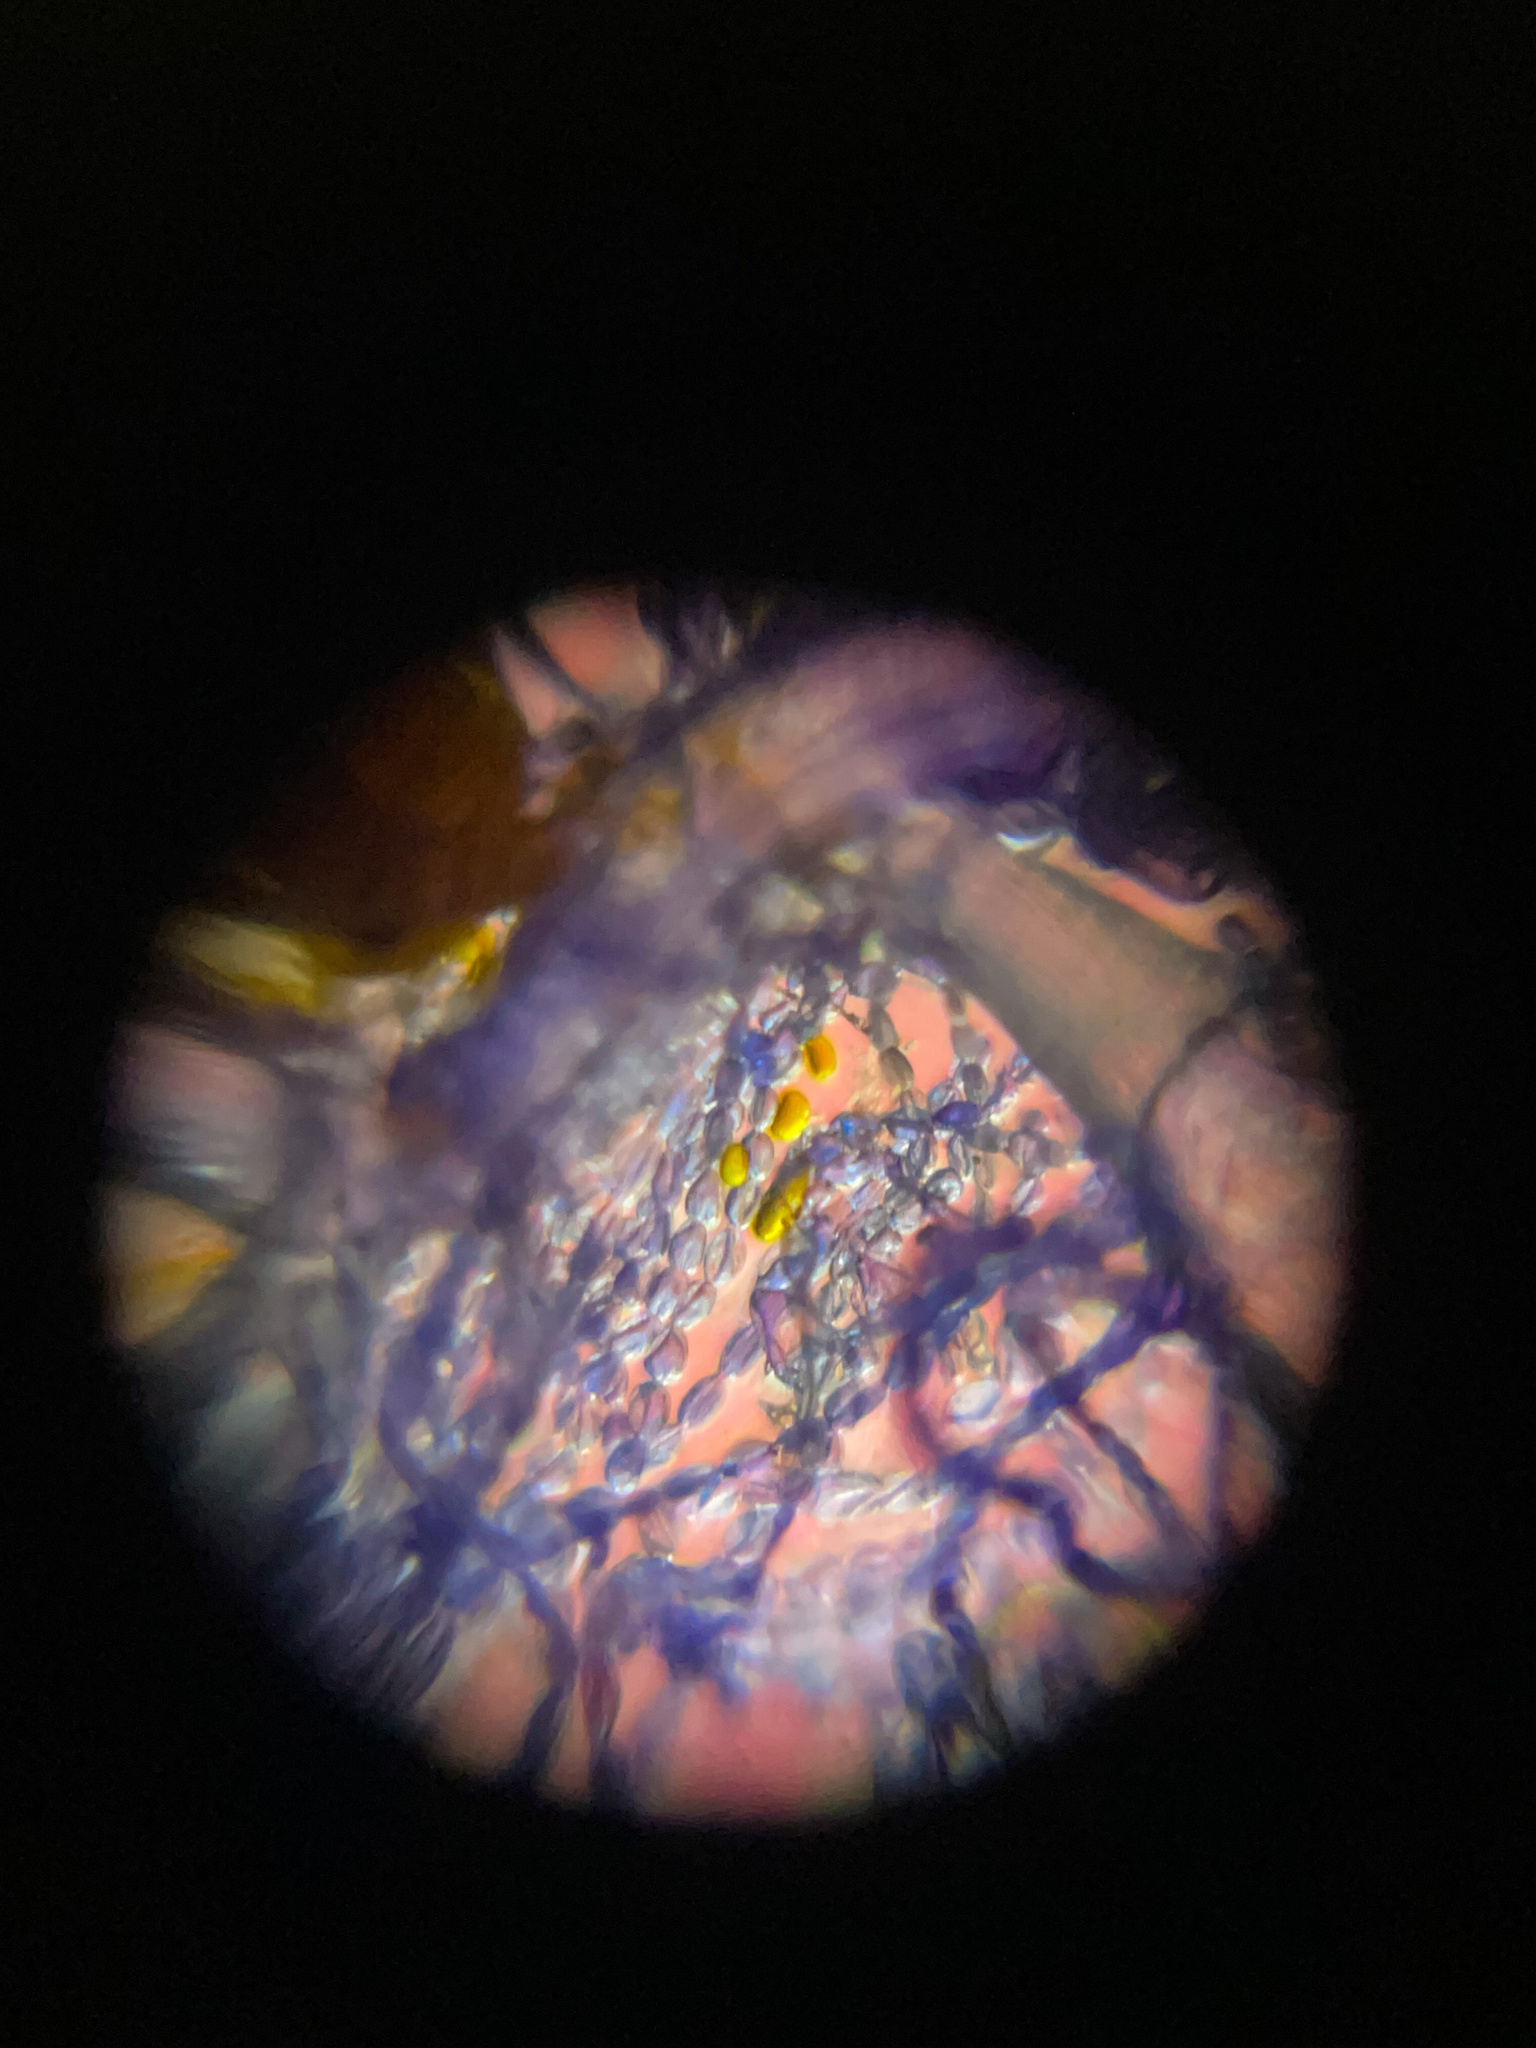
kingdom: Plantae
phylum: Tracheophyta
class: Liliopsida
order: Commelinales
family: Commelinaceae
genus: Cyanotis
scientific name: Cyanotis adscendens
